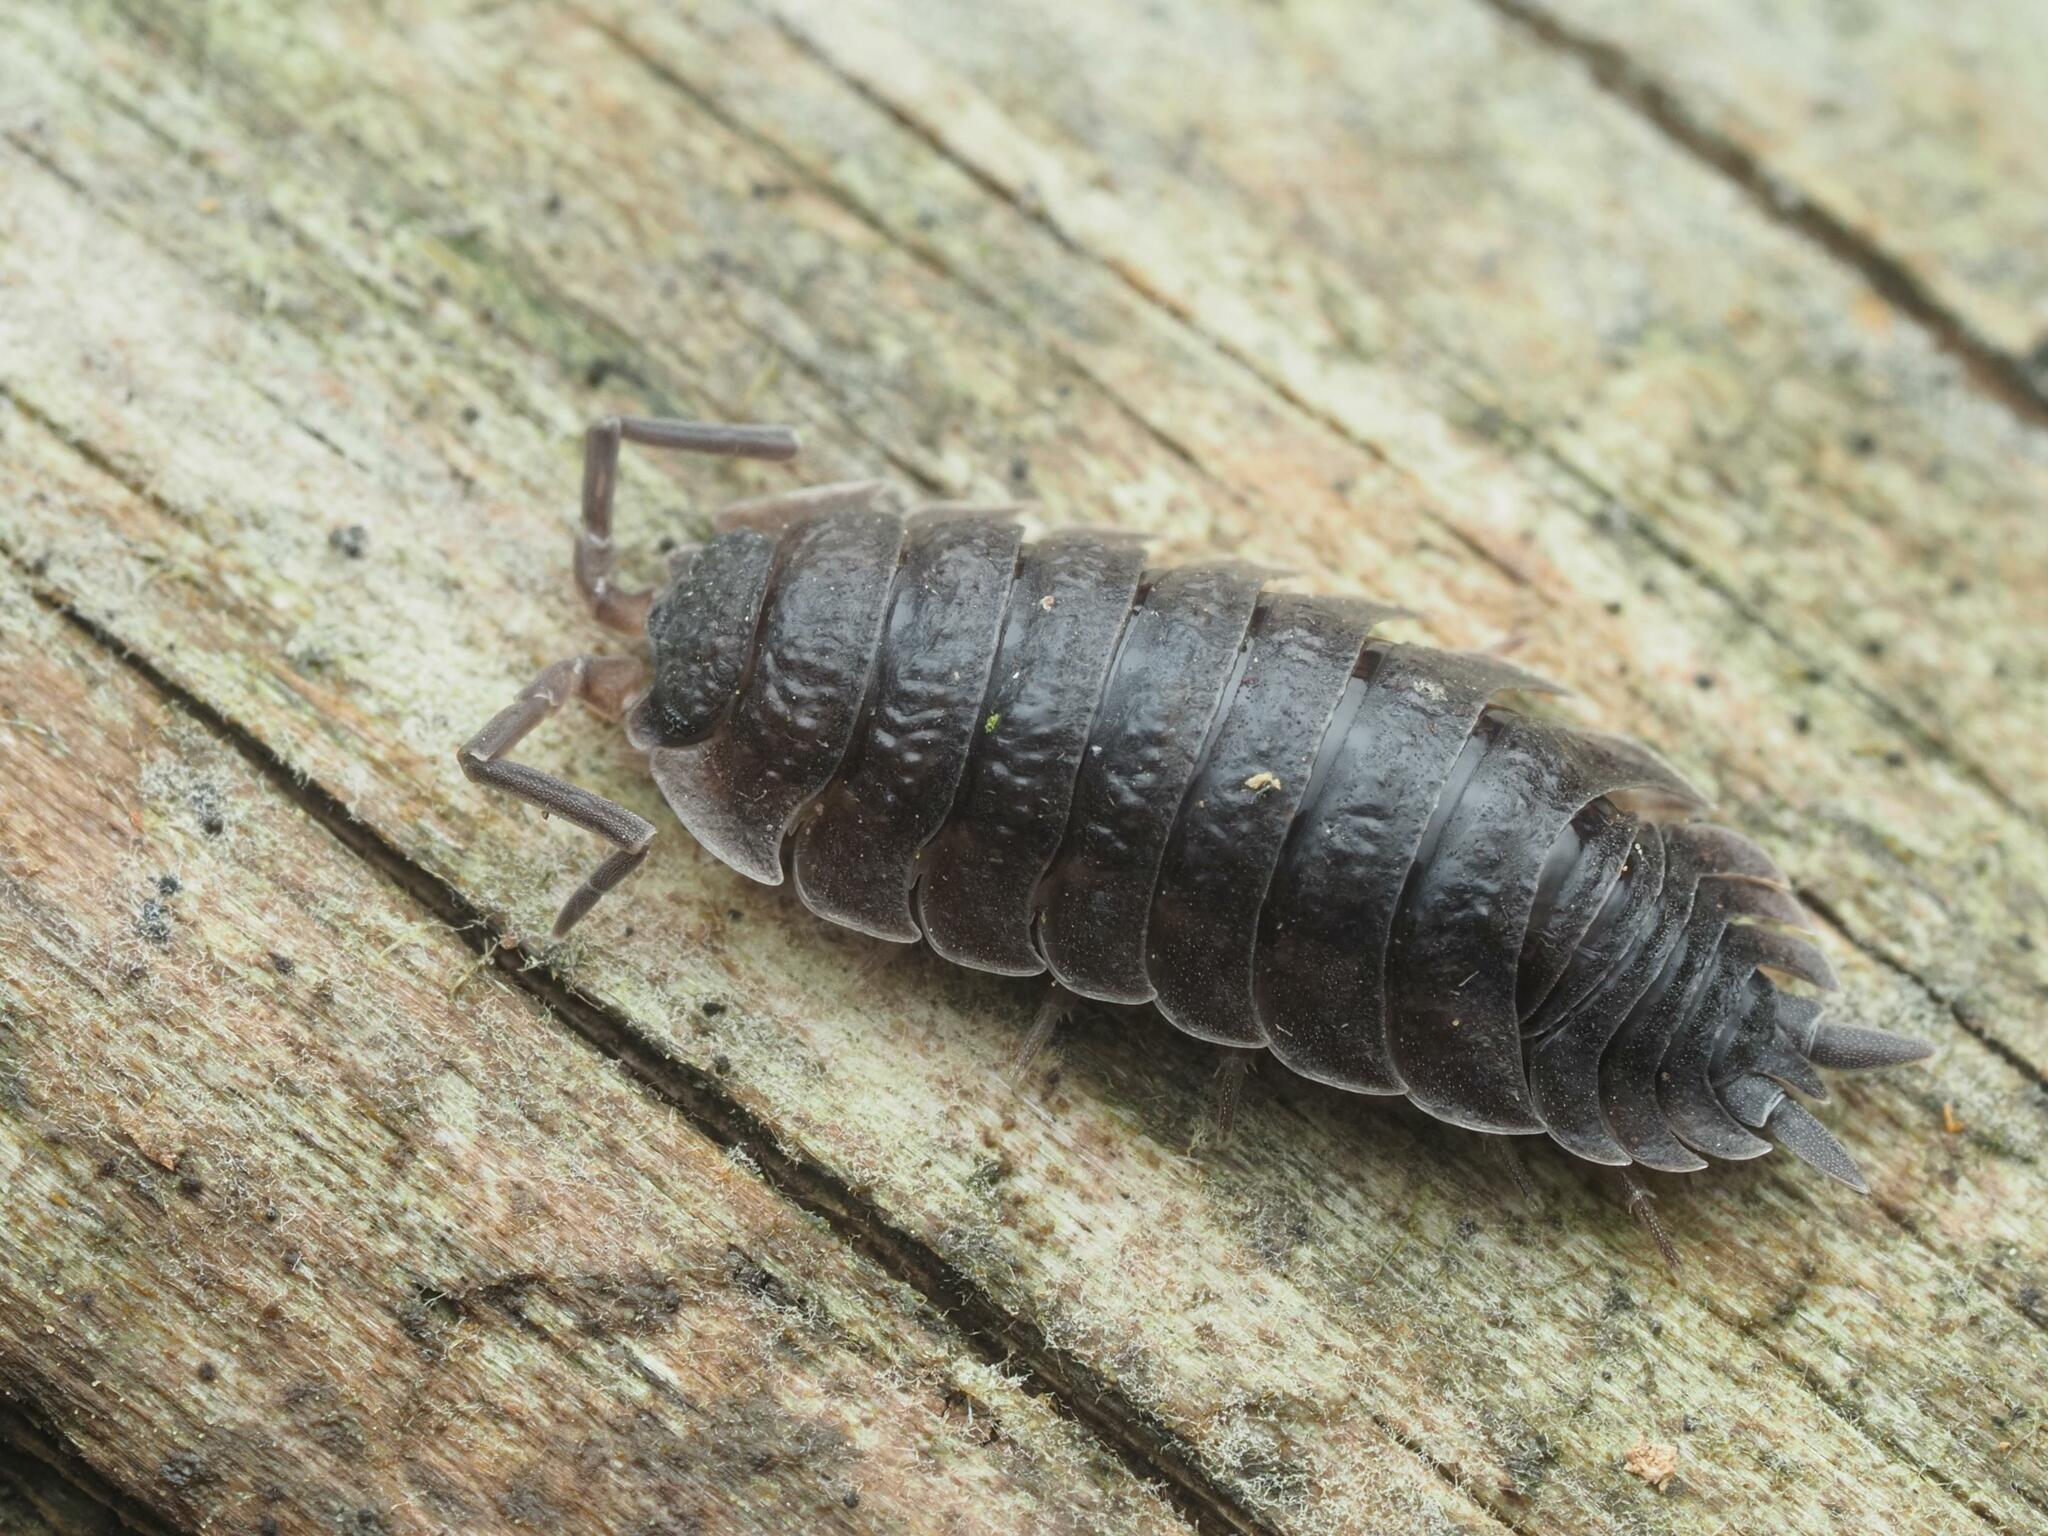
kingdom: Animalia
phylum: Arthropoda
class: Malacostraca
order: Isopoda
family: Porcellionidae
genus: Porcellio
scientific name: Porcellio scaber
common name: Common rough woodlouse
